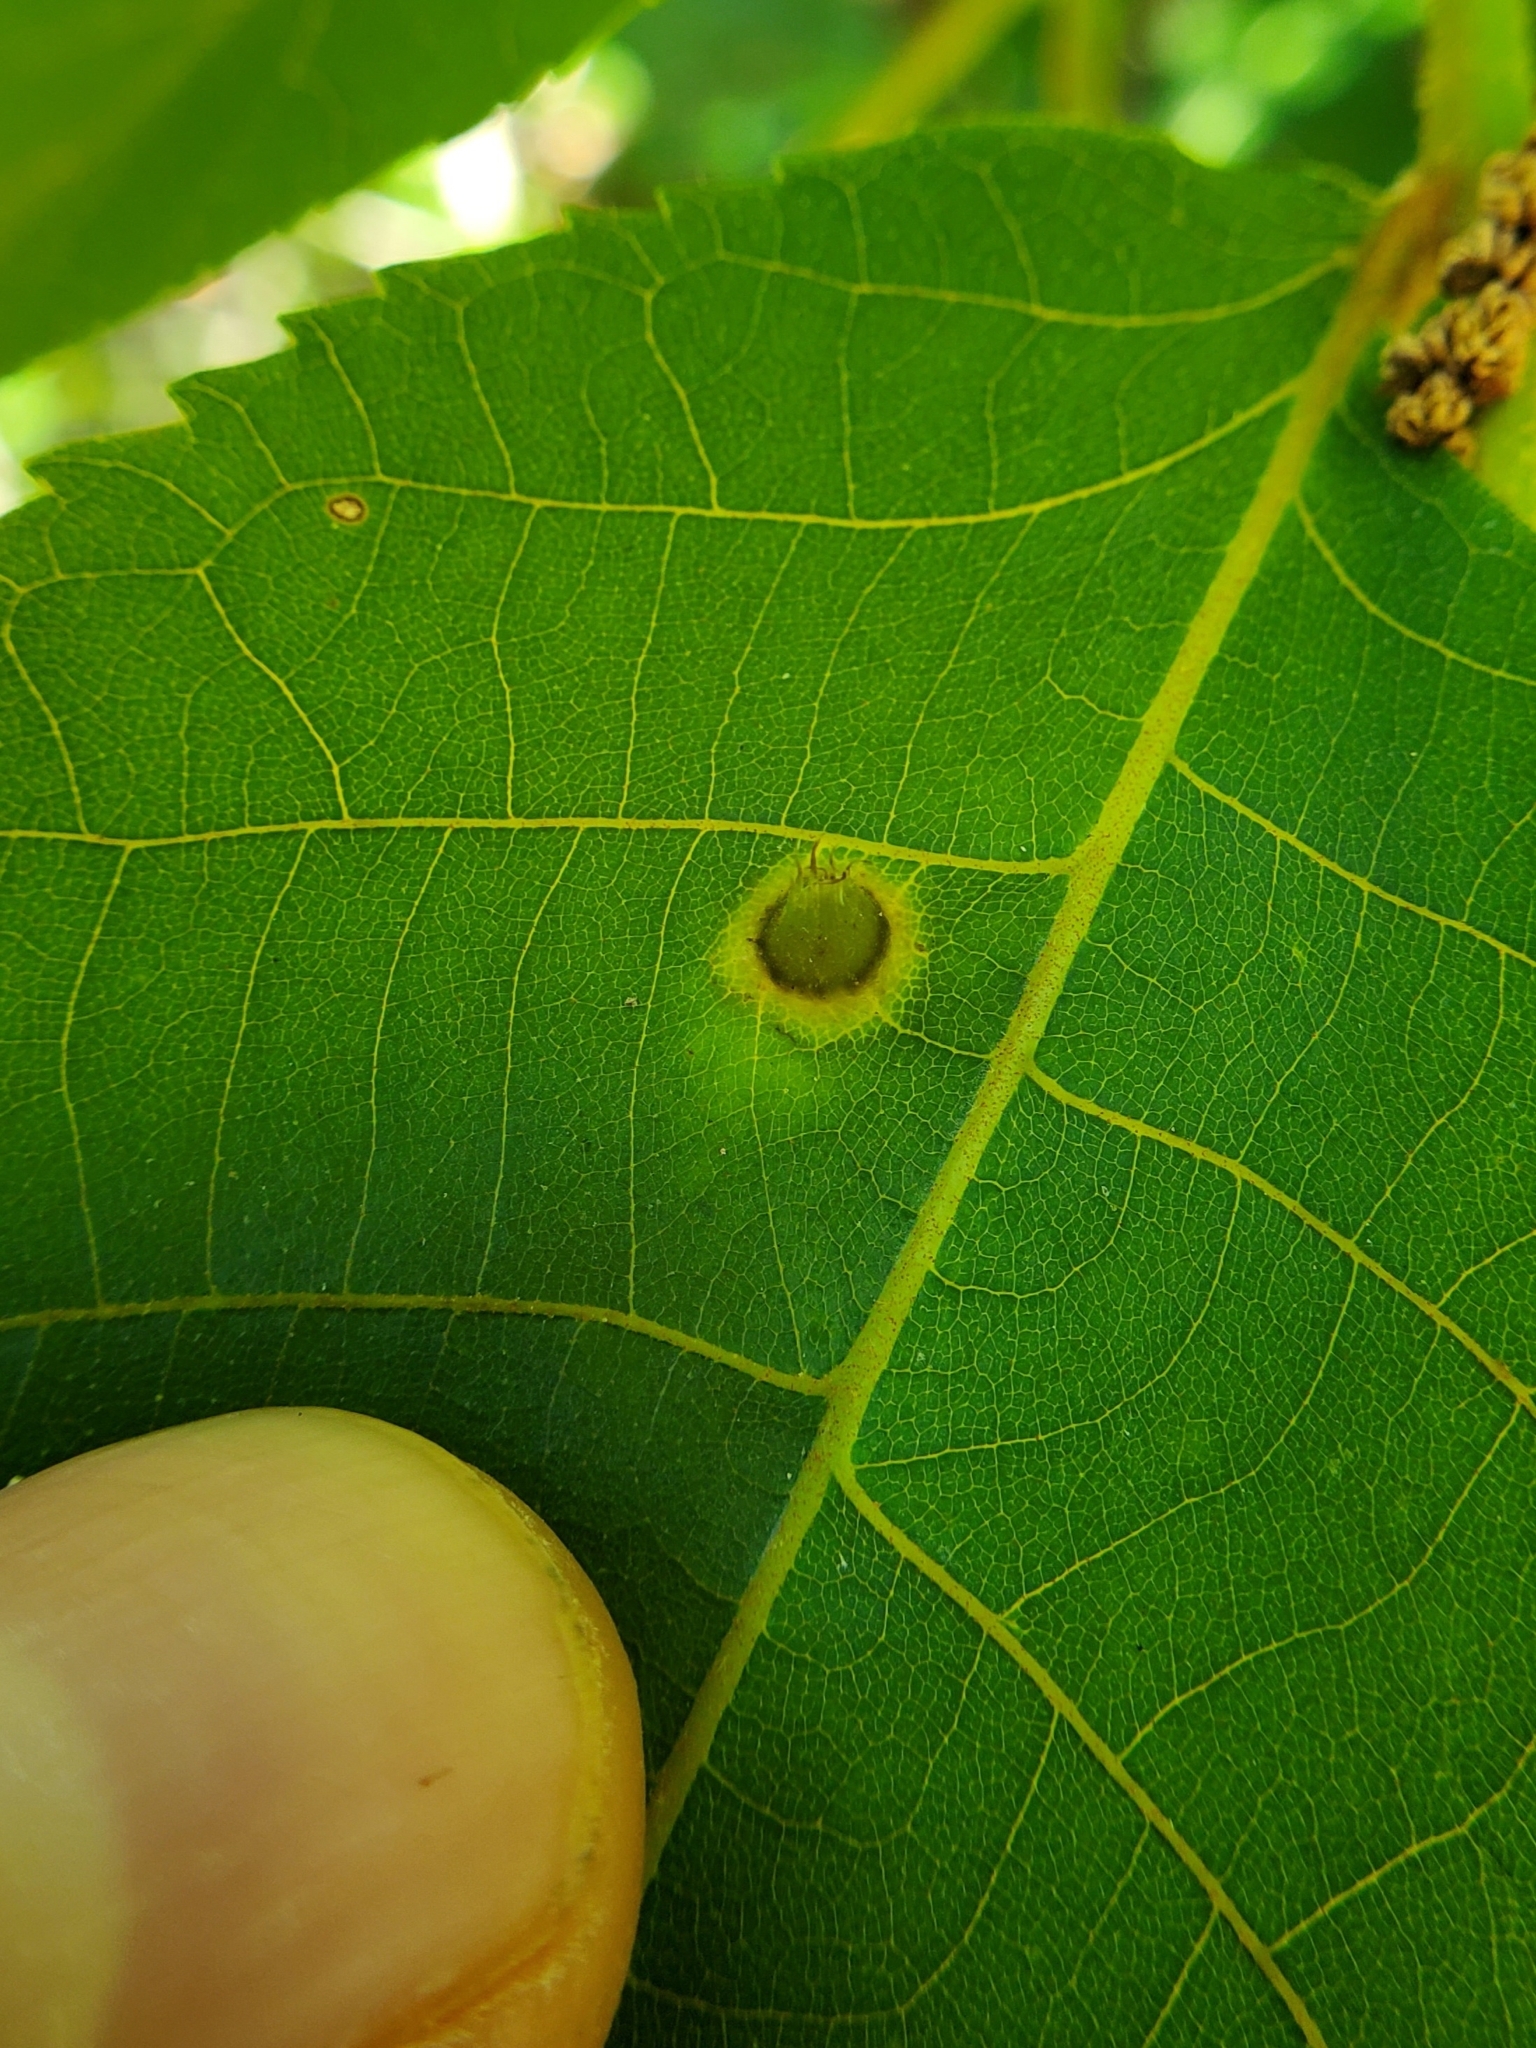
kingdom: Animalia
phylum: Arthropoda
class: Insecta
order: Hemiptera
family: Phylloxeridae
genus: Phylloxera
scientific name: Phylloxera caryaefoliae
